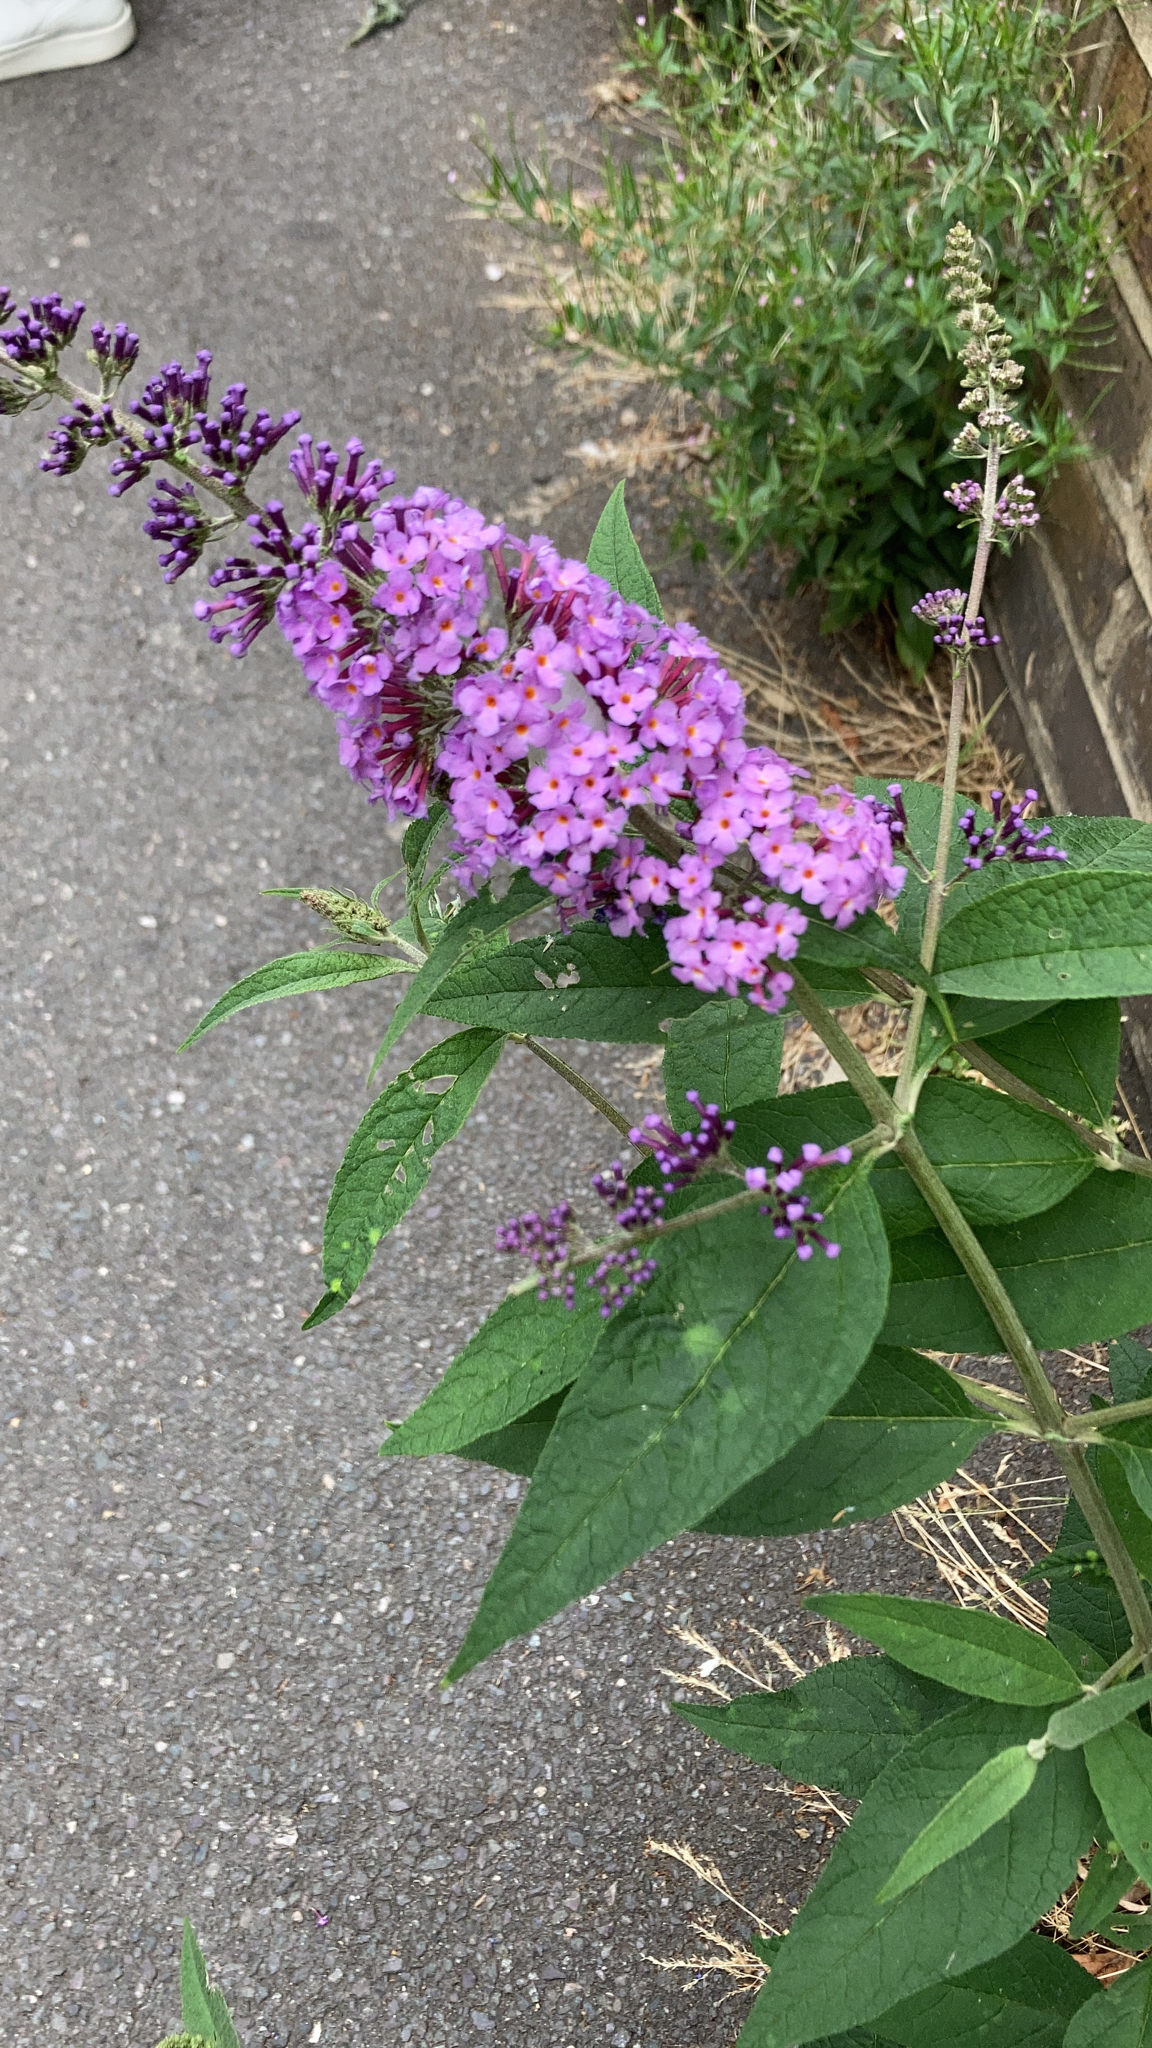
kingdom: Plantae
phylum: Tracheophyta
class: Magnoliopsida
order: Lamiales
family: Scrophulariaceae
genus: Buddleja
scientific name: Buddleja davidii
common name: Butterfly-bush
